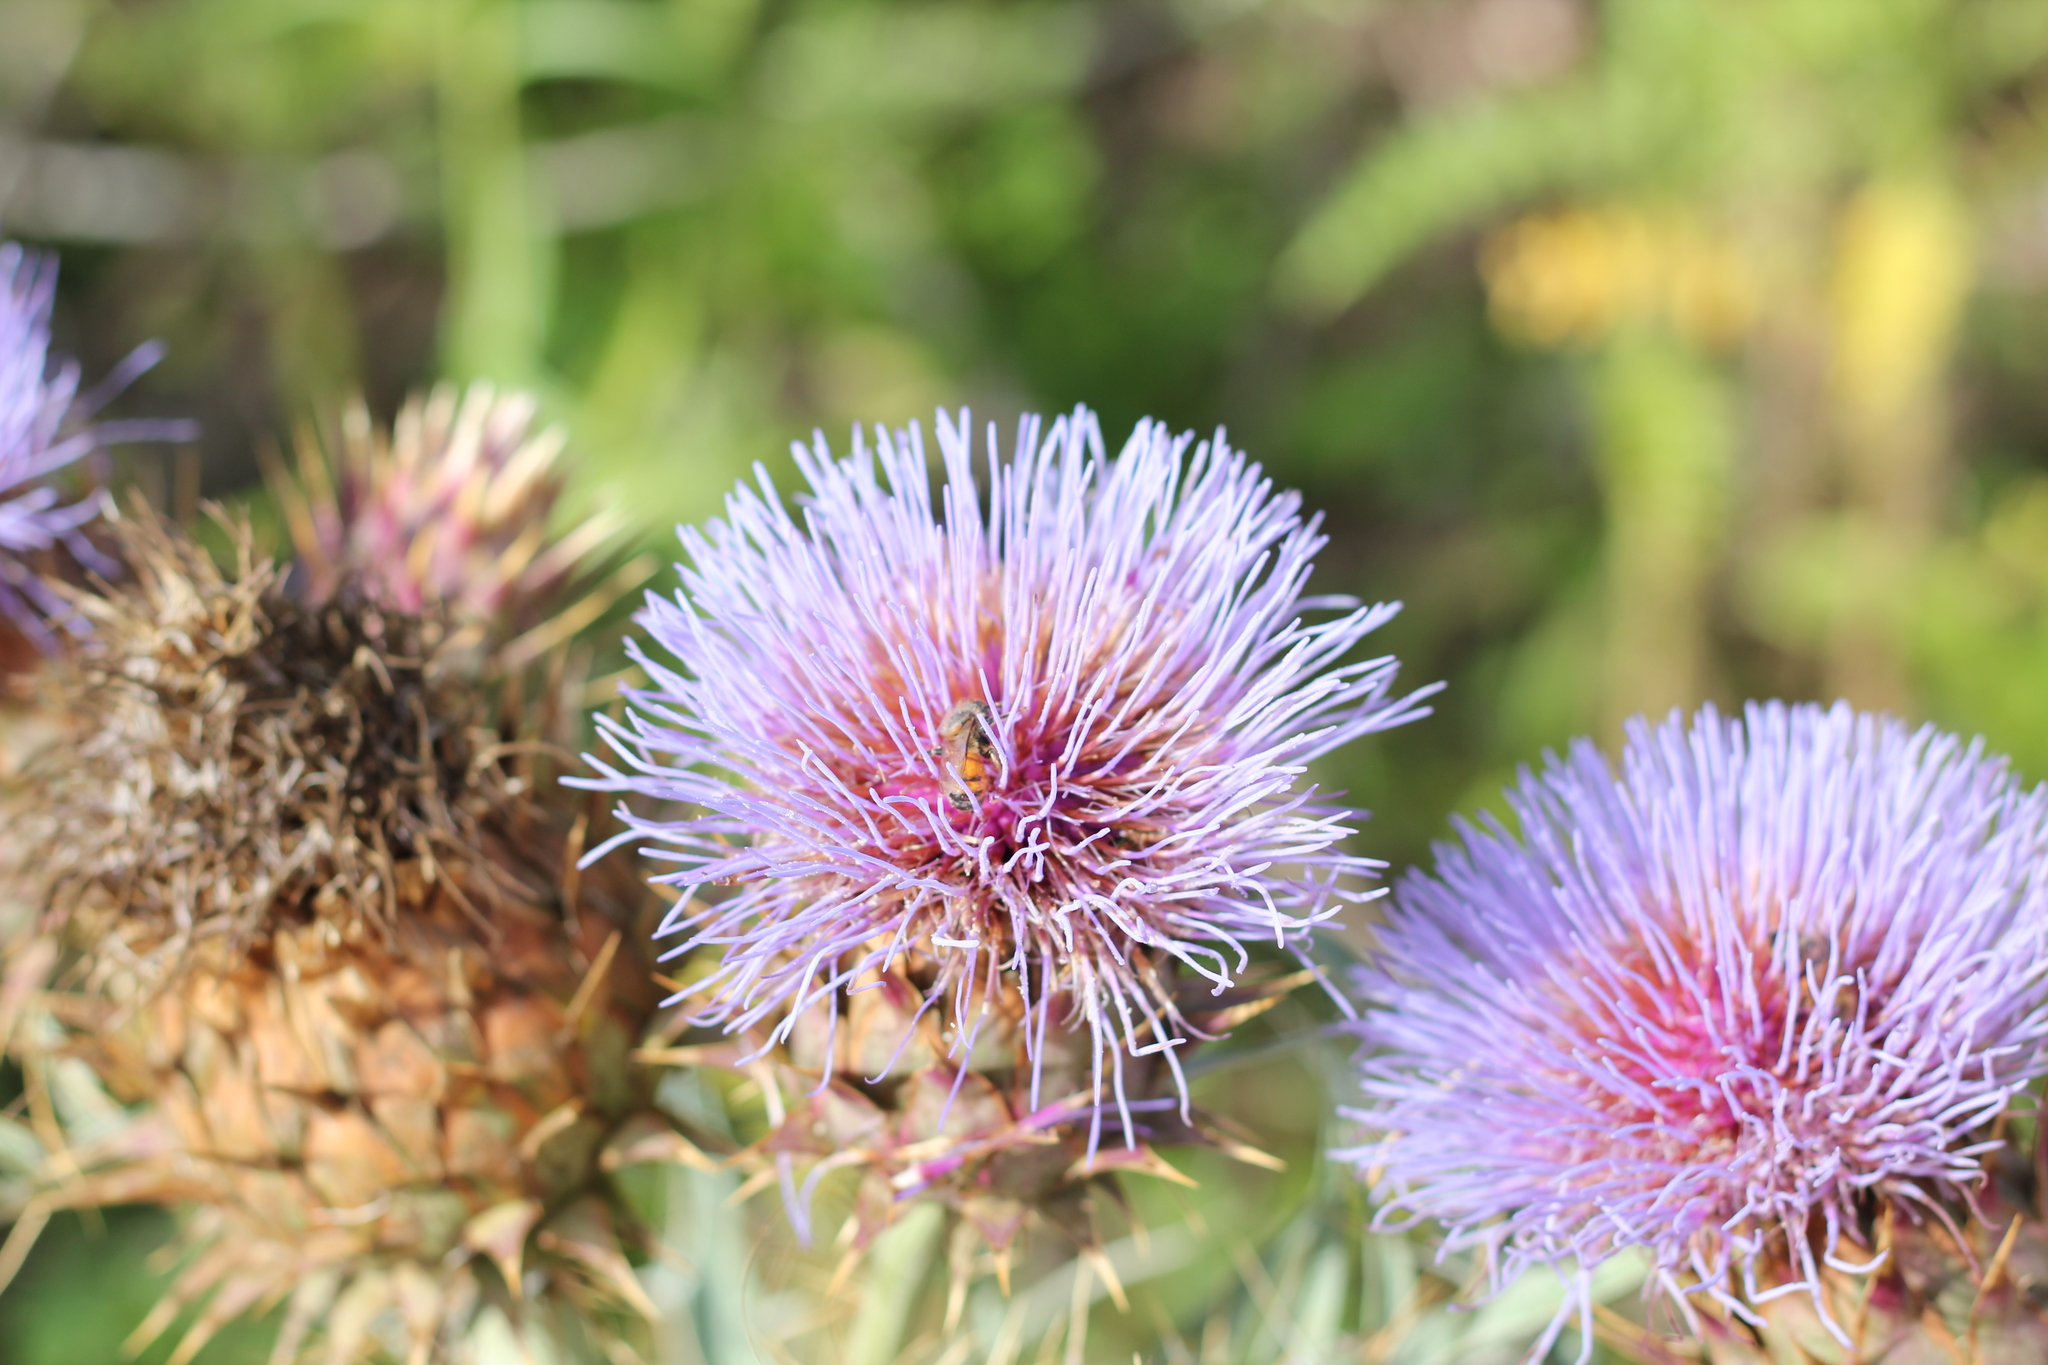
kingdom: Plantae
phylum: Tracheophyta
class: Magnoliopsida
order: Asterales
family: Asteraceae
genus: Cynara
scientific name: Cynara cardunculus
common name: Globe artichoke
